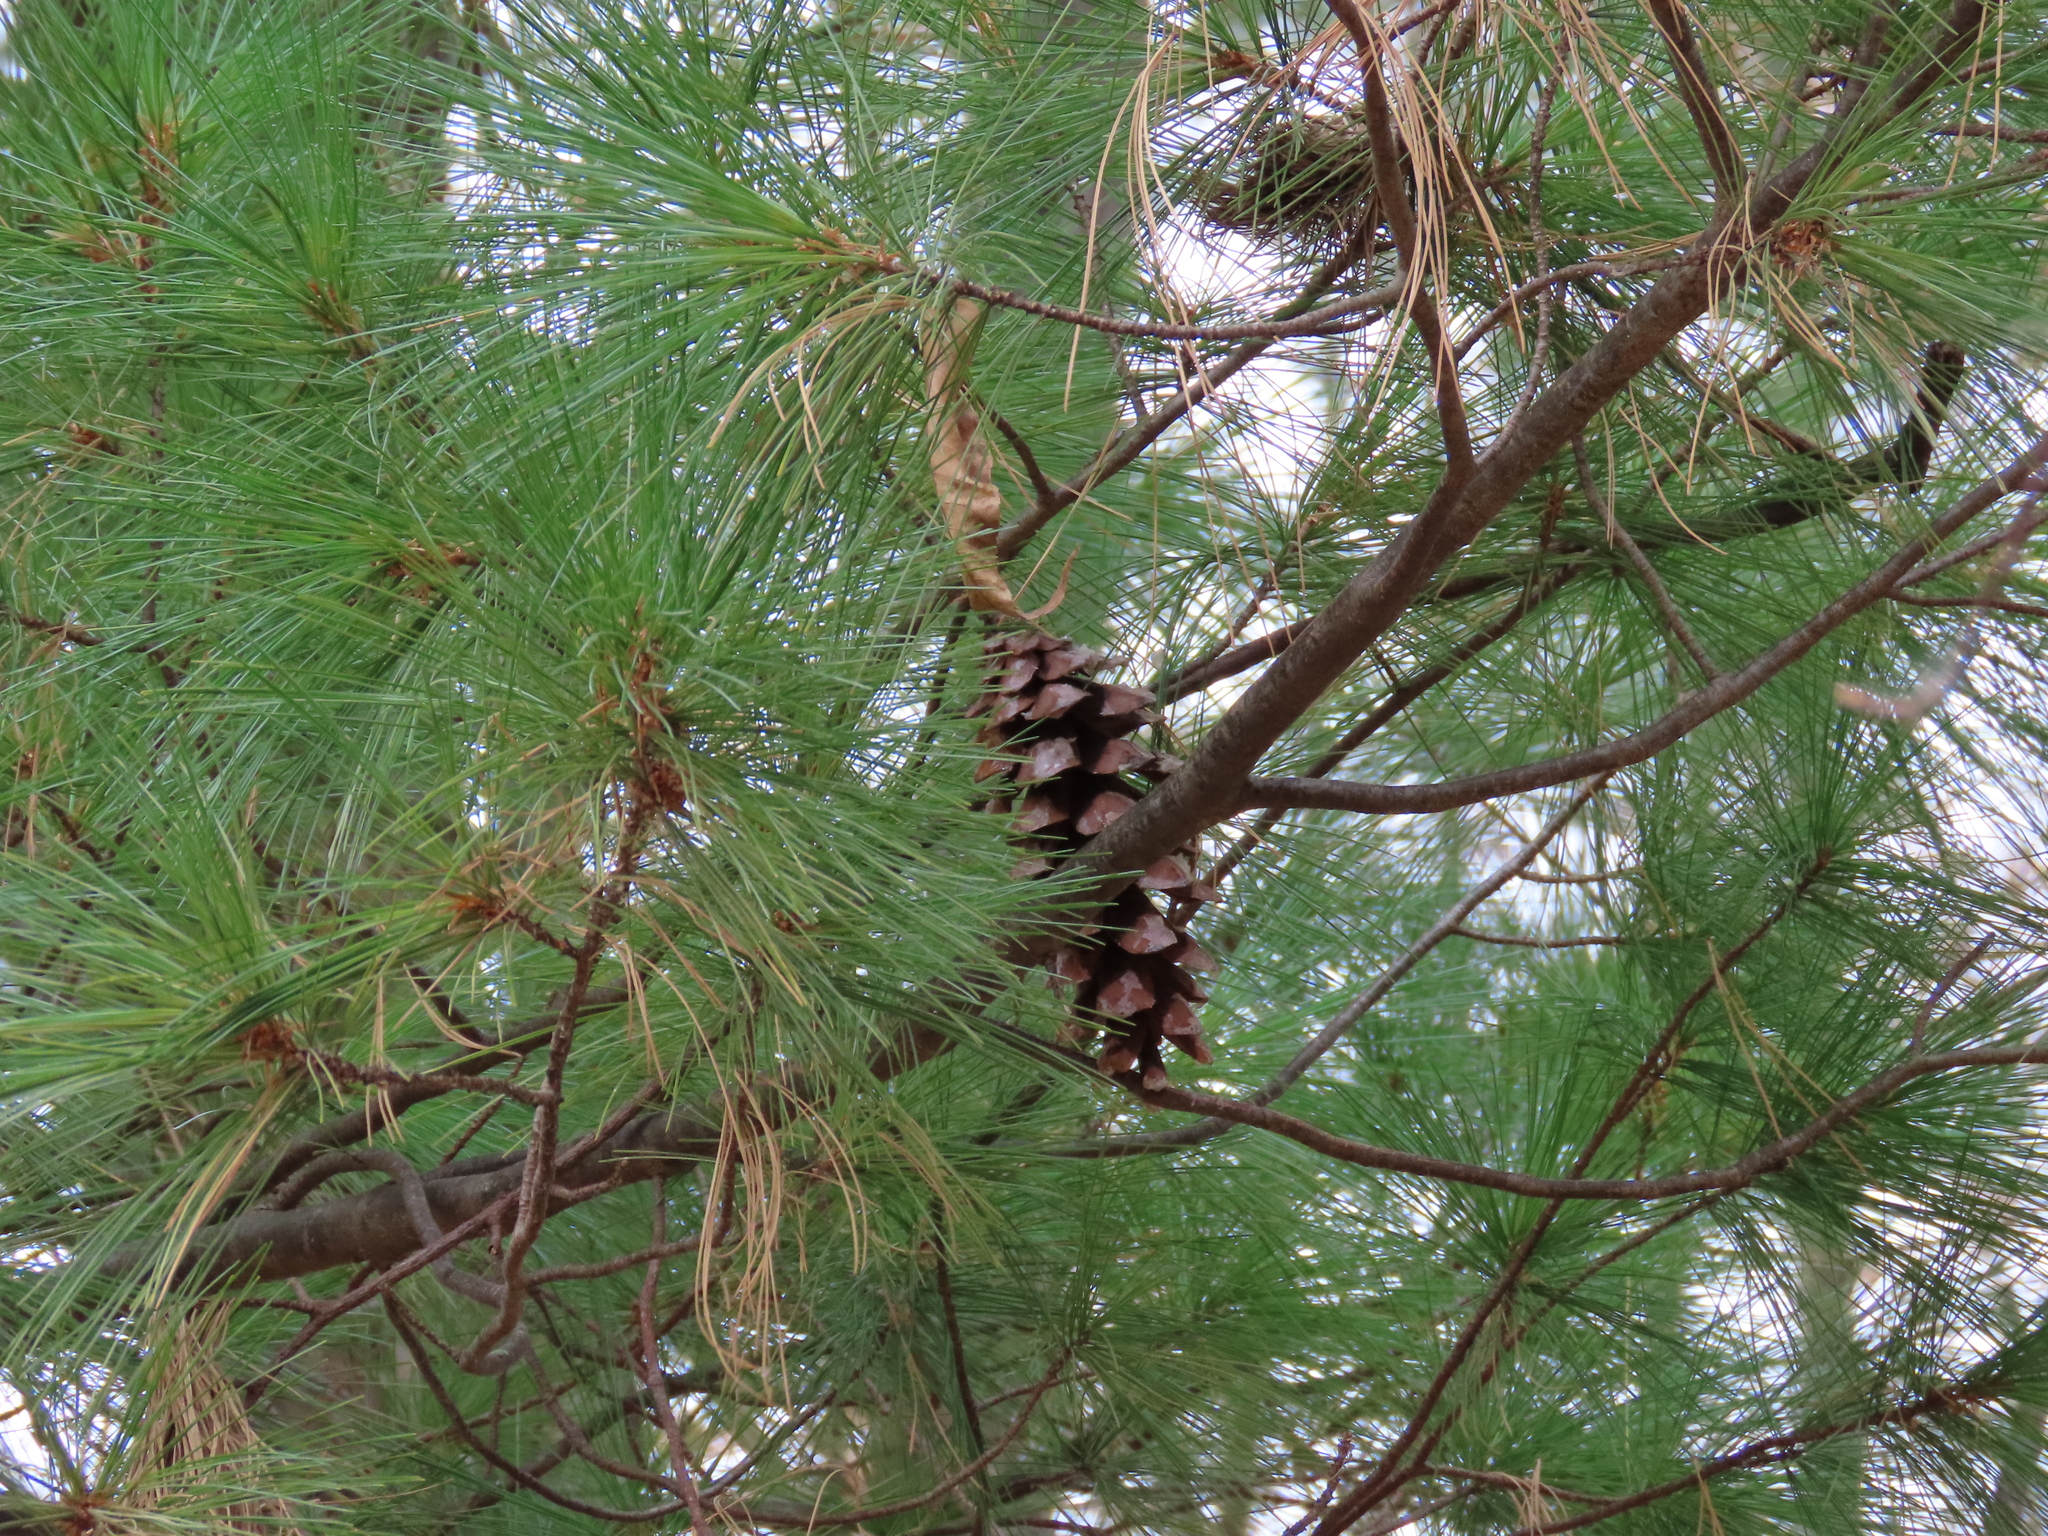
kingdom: Plantae
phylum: Tracheophyta
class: Pinopsida
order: Pinales
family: Pinaceae
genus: Pinus
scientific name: Pinus strobus
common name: Weymouth pine
